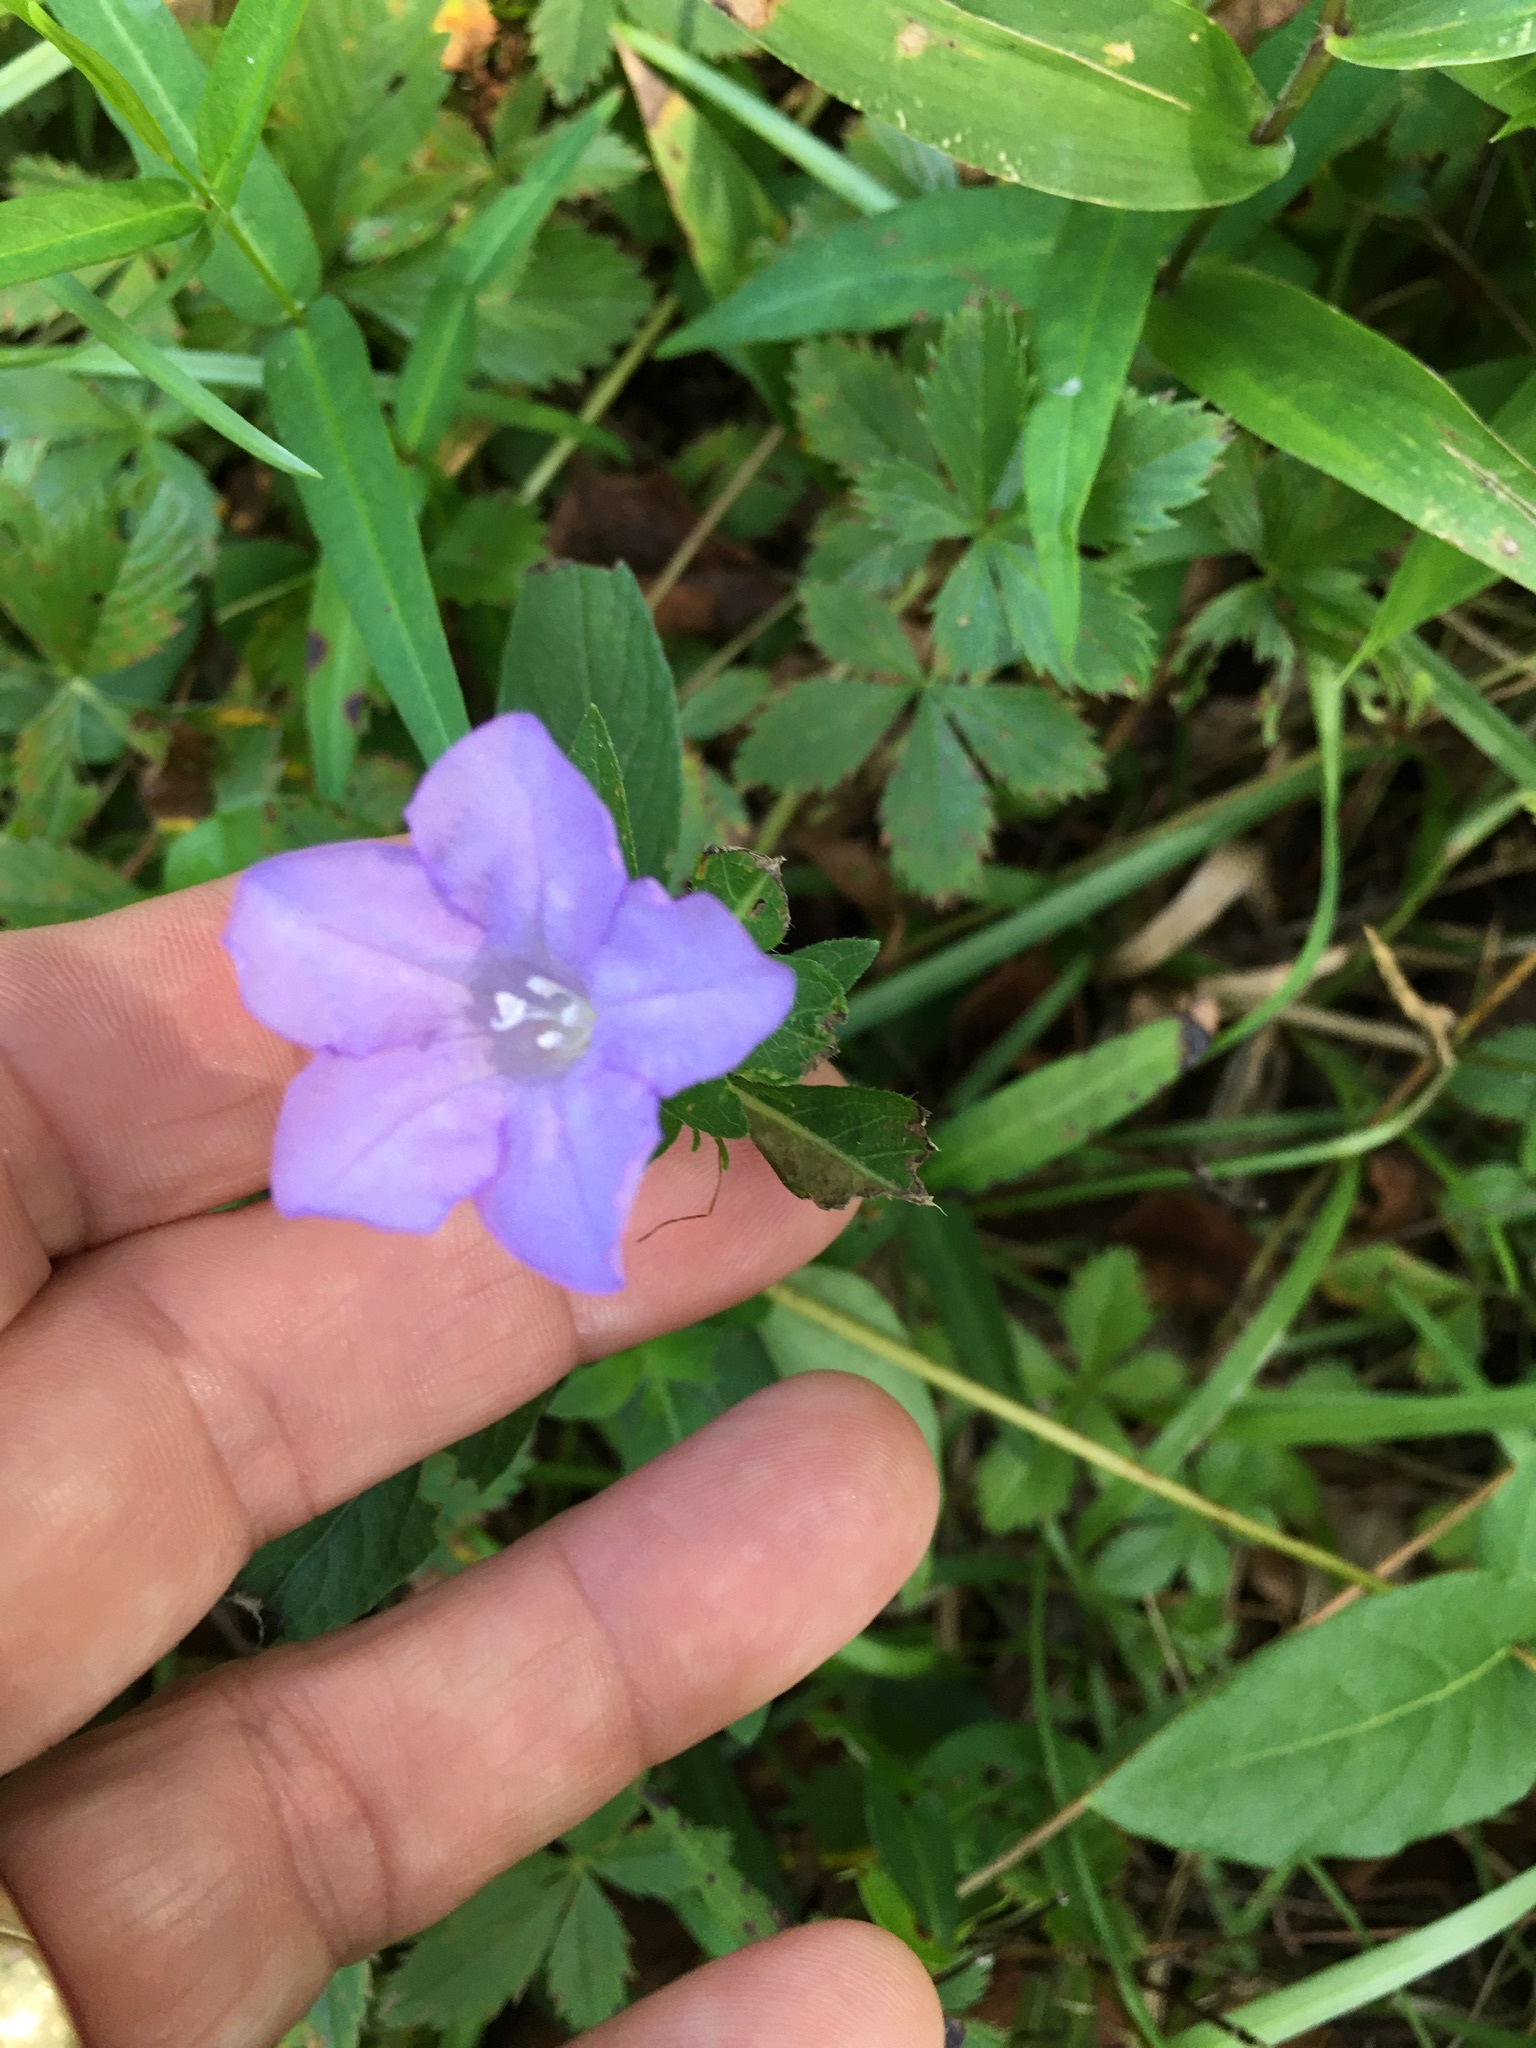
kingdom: Plantae
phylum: Tracheophyta
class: Magnoliopsida
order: Lamiales
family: Acanthaceae
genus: Ruellia
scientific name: Ruellia caroliniensis
